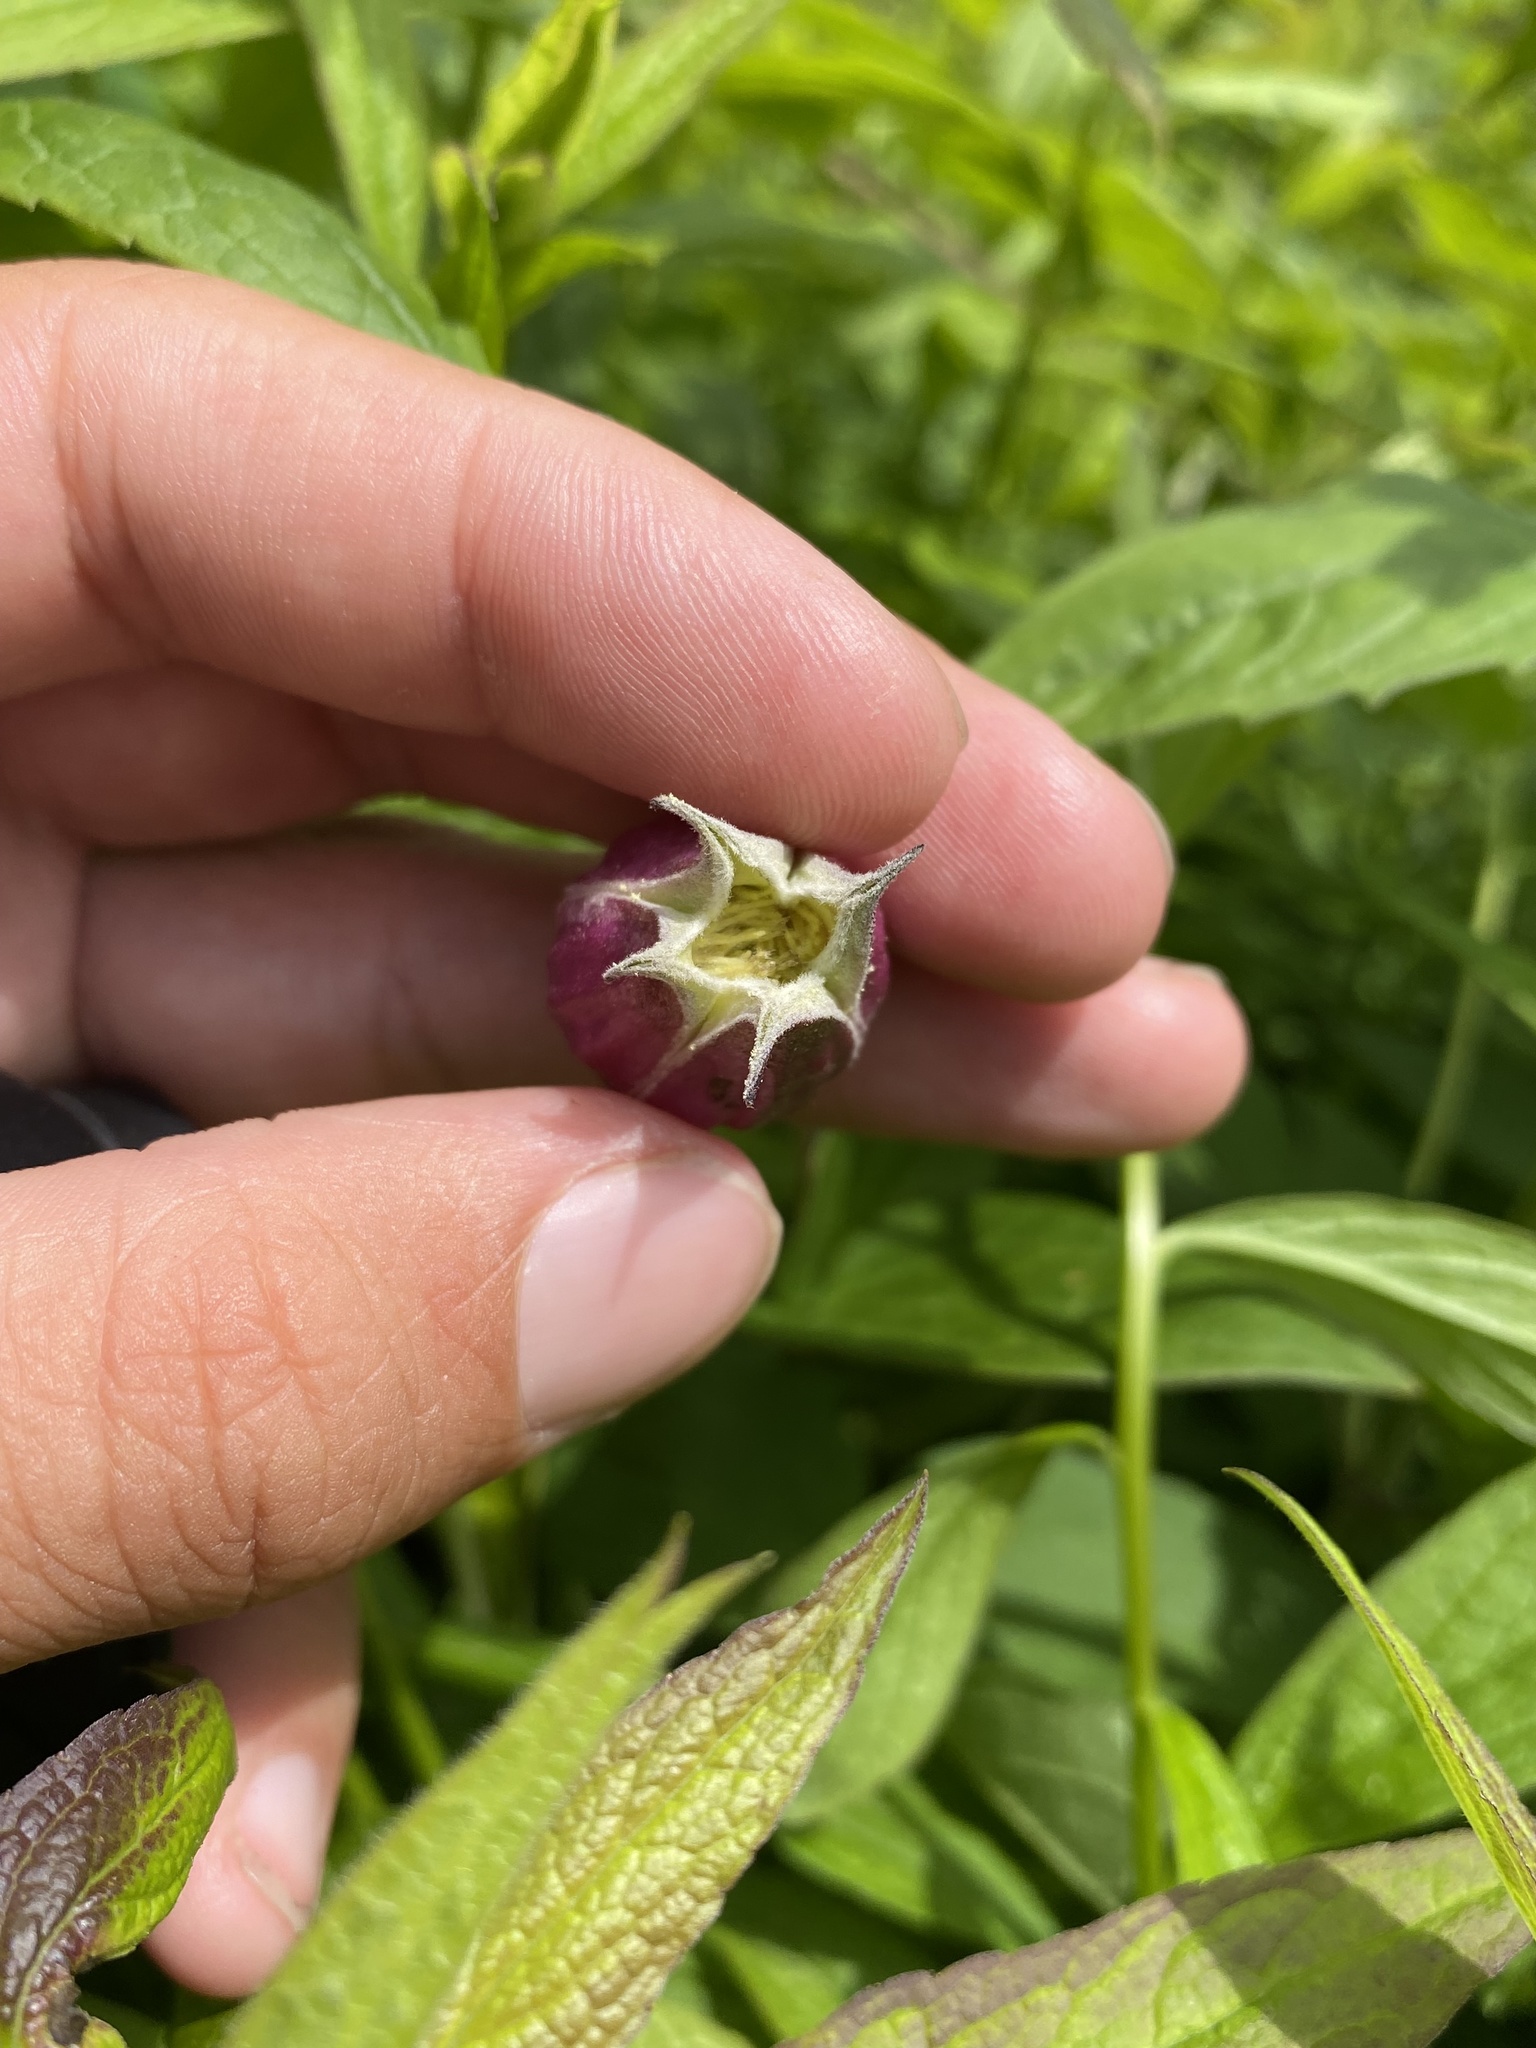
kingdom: Plantae
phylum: Tracheophyta
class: Magnoliopsida
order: Ranunculales
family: Ranunculaceae
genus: Clematis
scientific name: Clematis viorna
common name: Leather-flower
